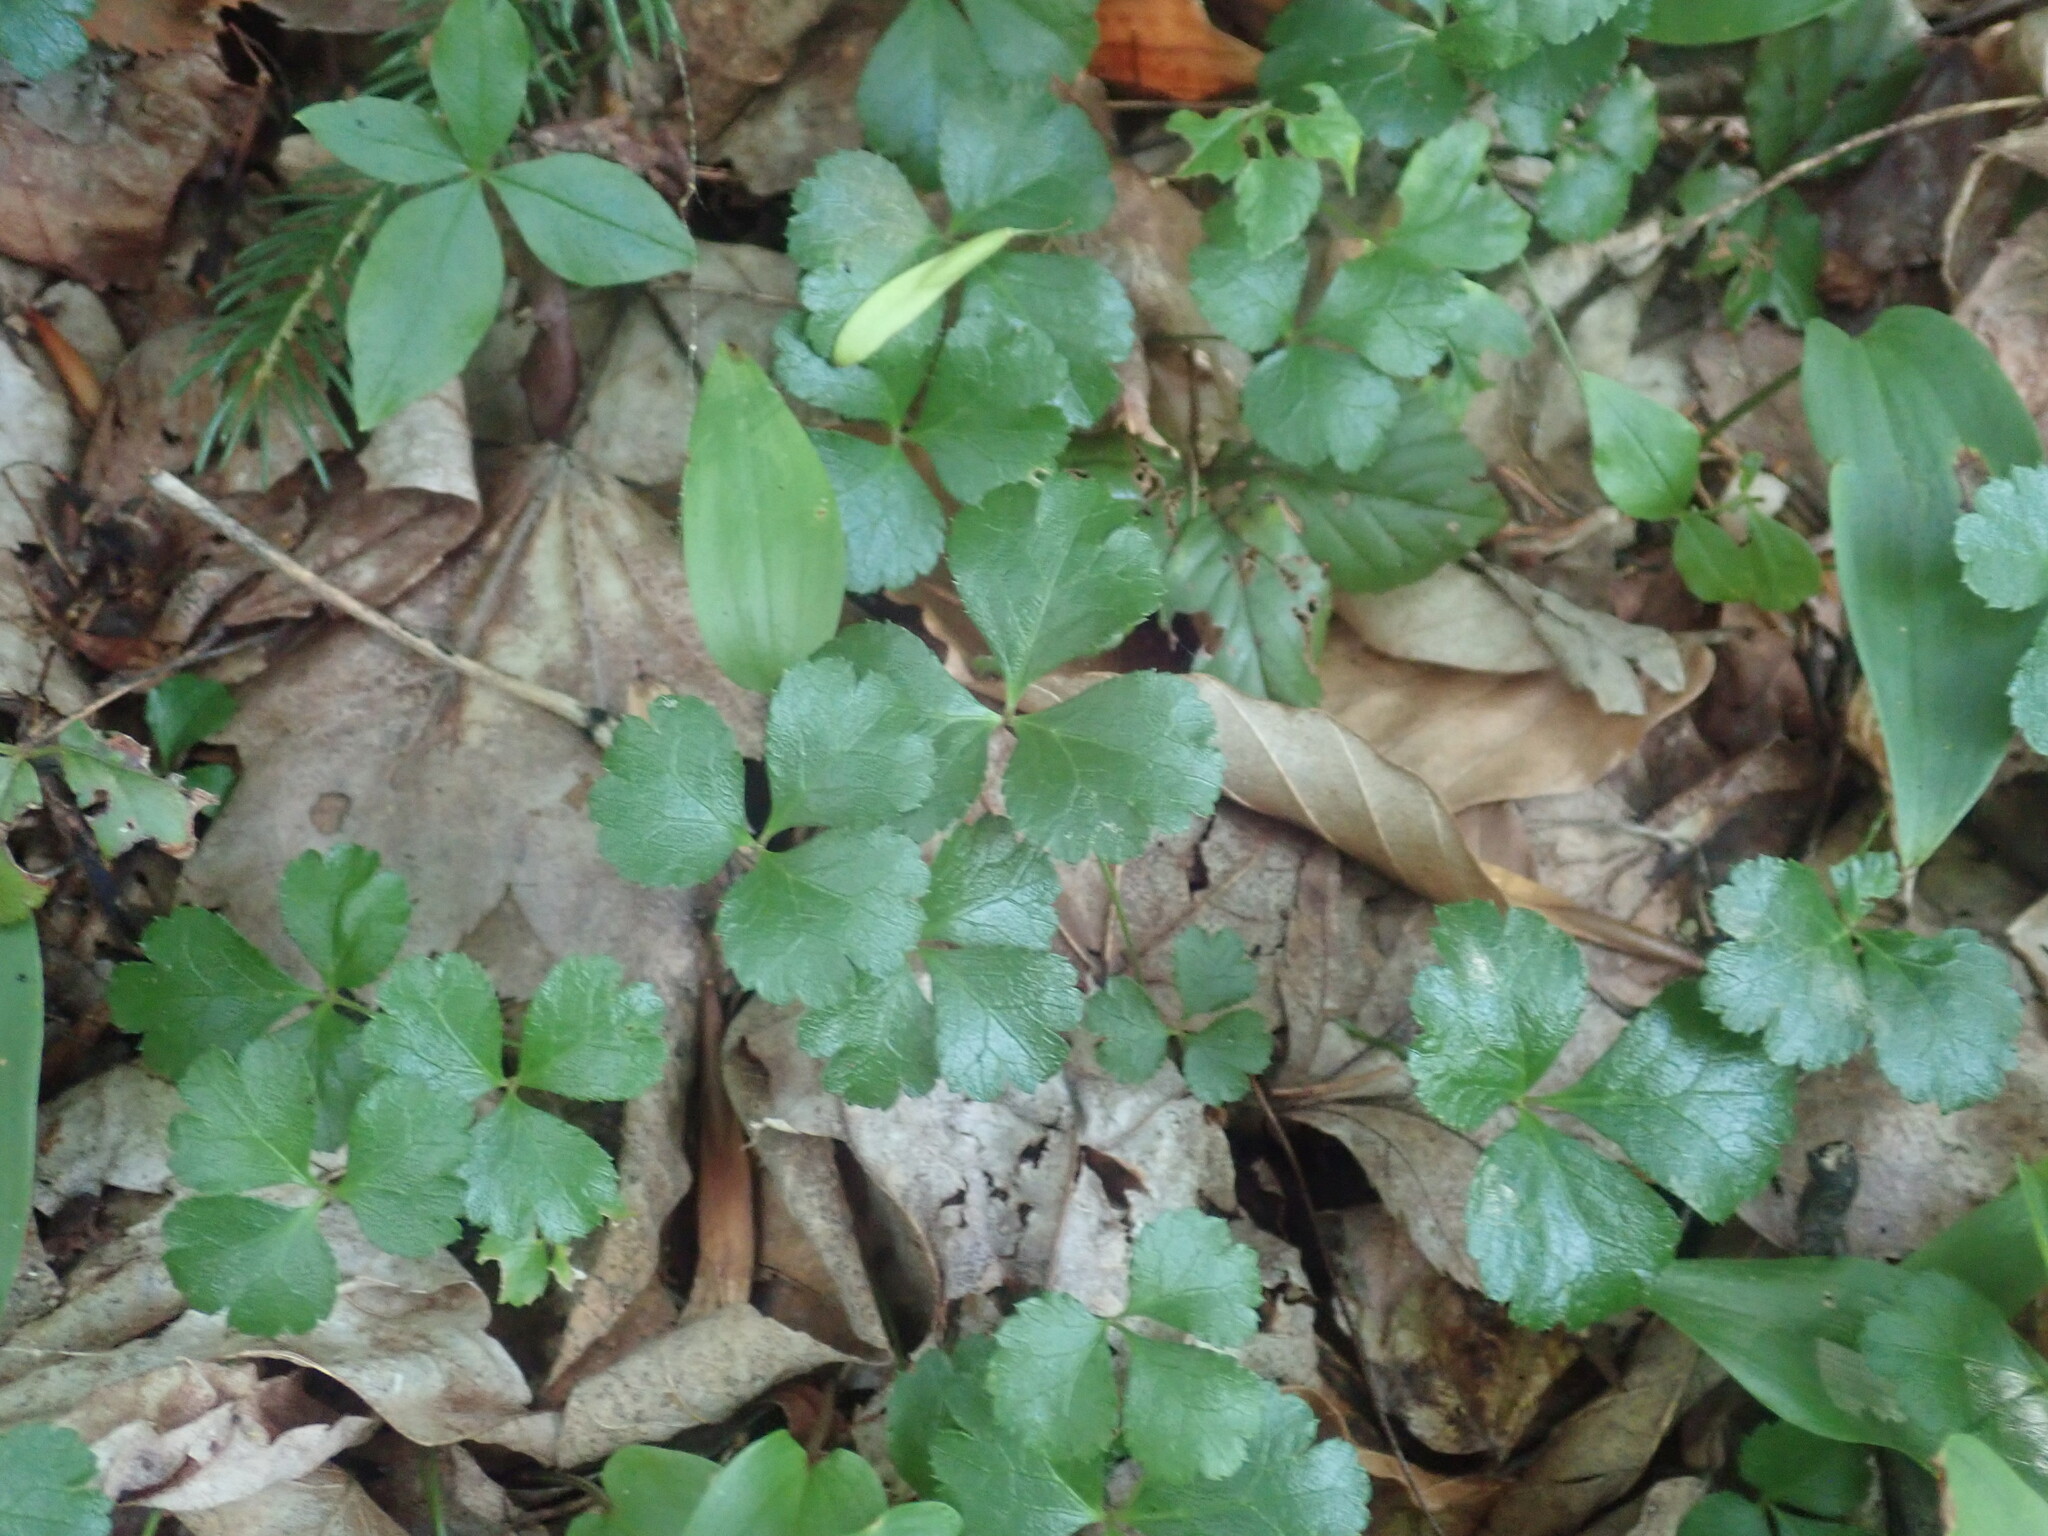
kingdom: Plantae
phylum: Tracheophyta
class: Magnoliopsida
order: Ranunculales
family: Ranunculaceae
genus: Coptis
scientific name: Coptis trifolia
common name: Canker-root
